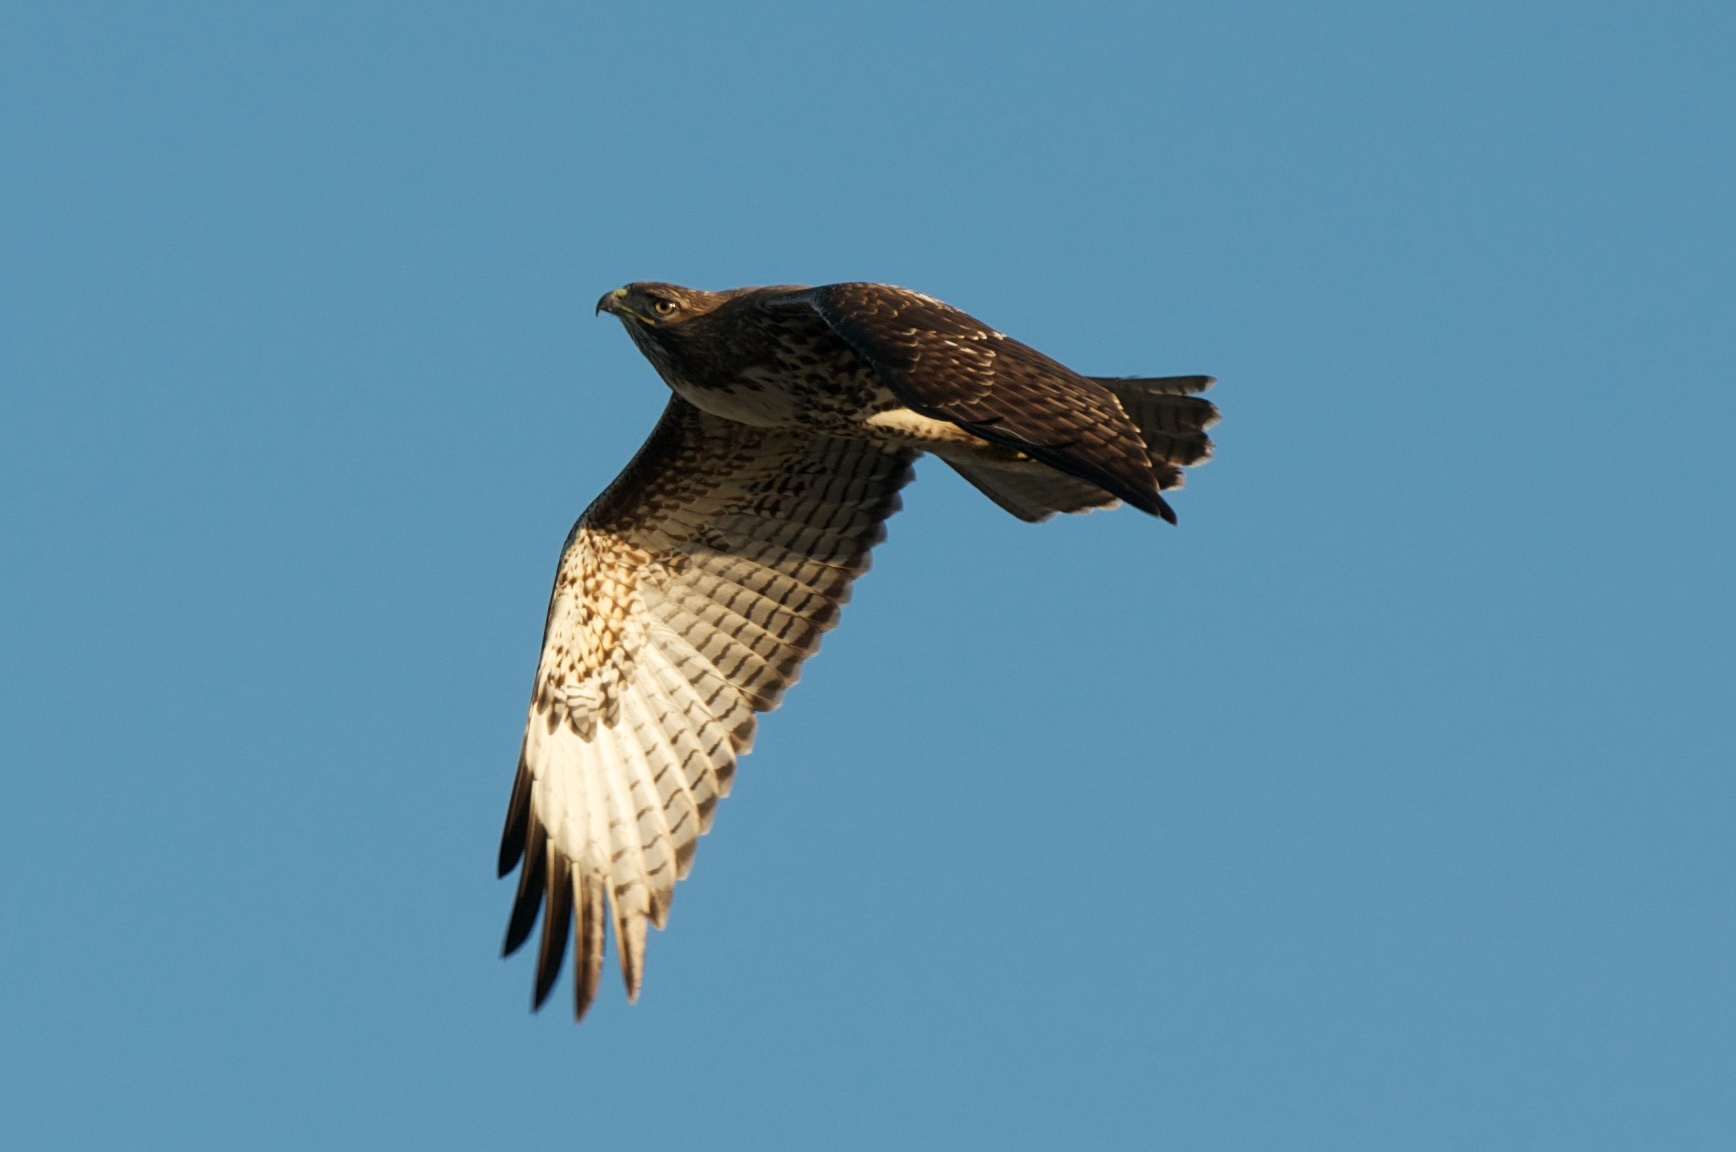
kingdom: Animalia
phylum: Chordata
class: Aves
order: Accipitriformes
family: Accipitridae
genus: Buteo
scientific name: Buteo jamaicensis
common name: Red-tailed hawk
